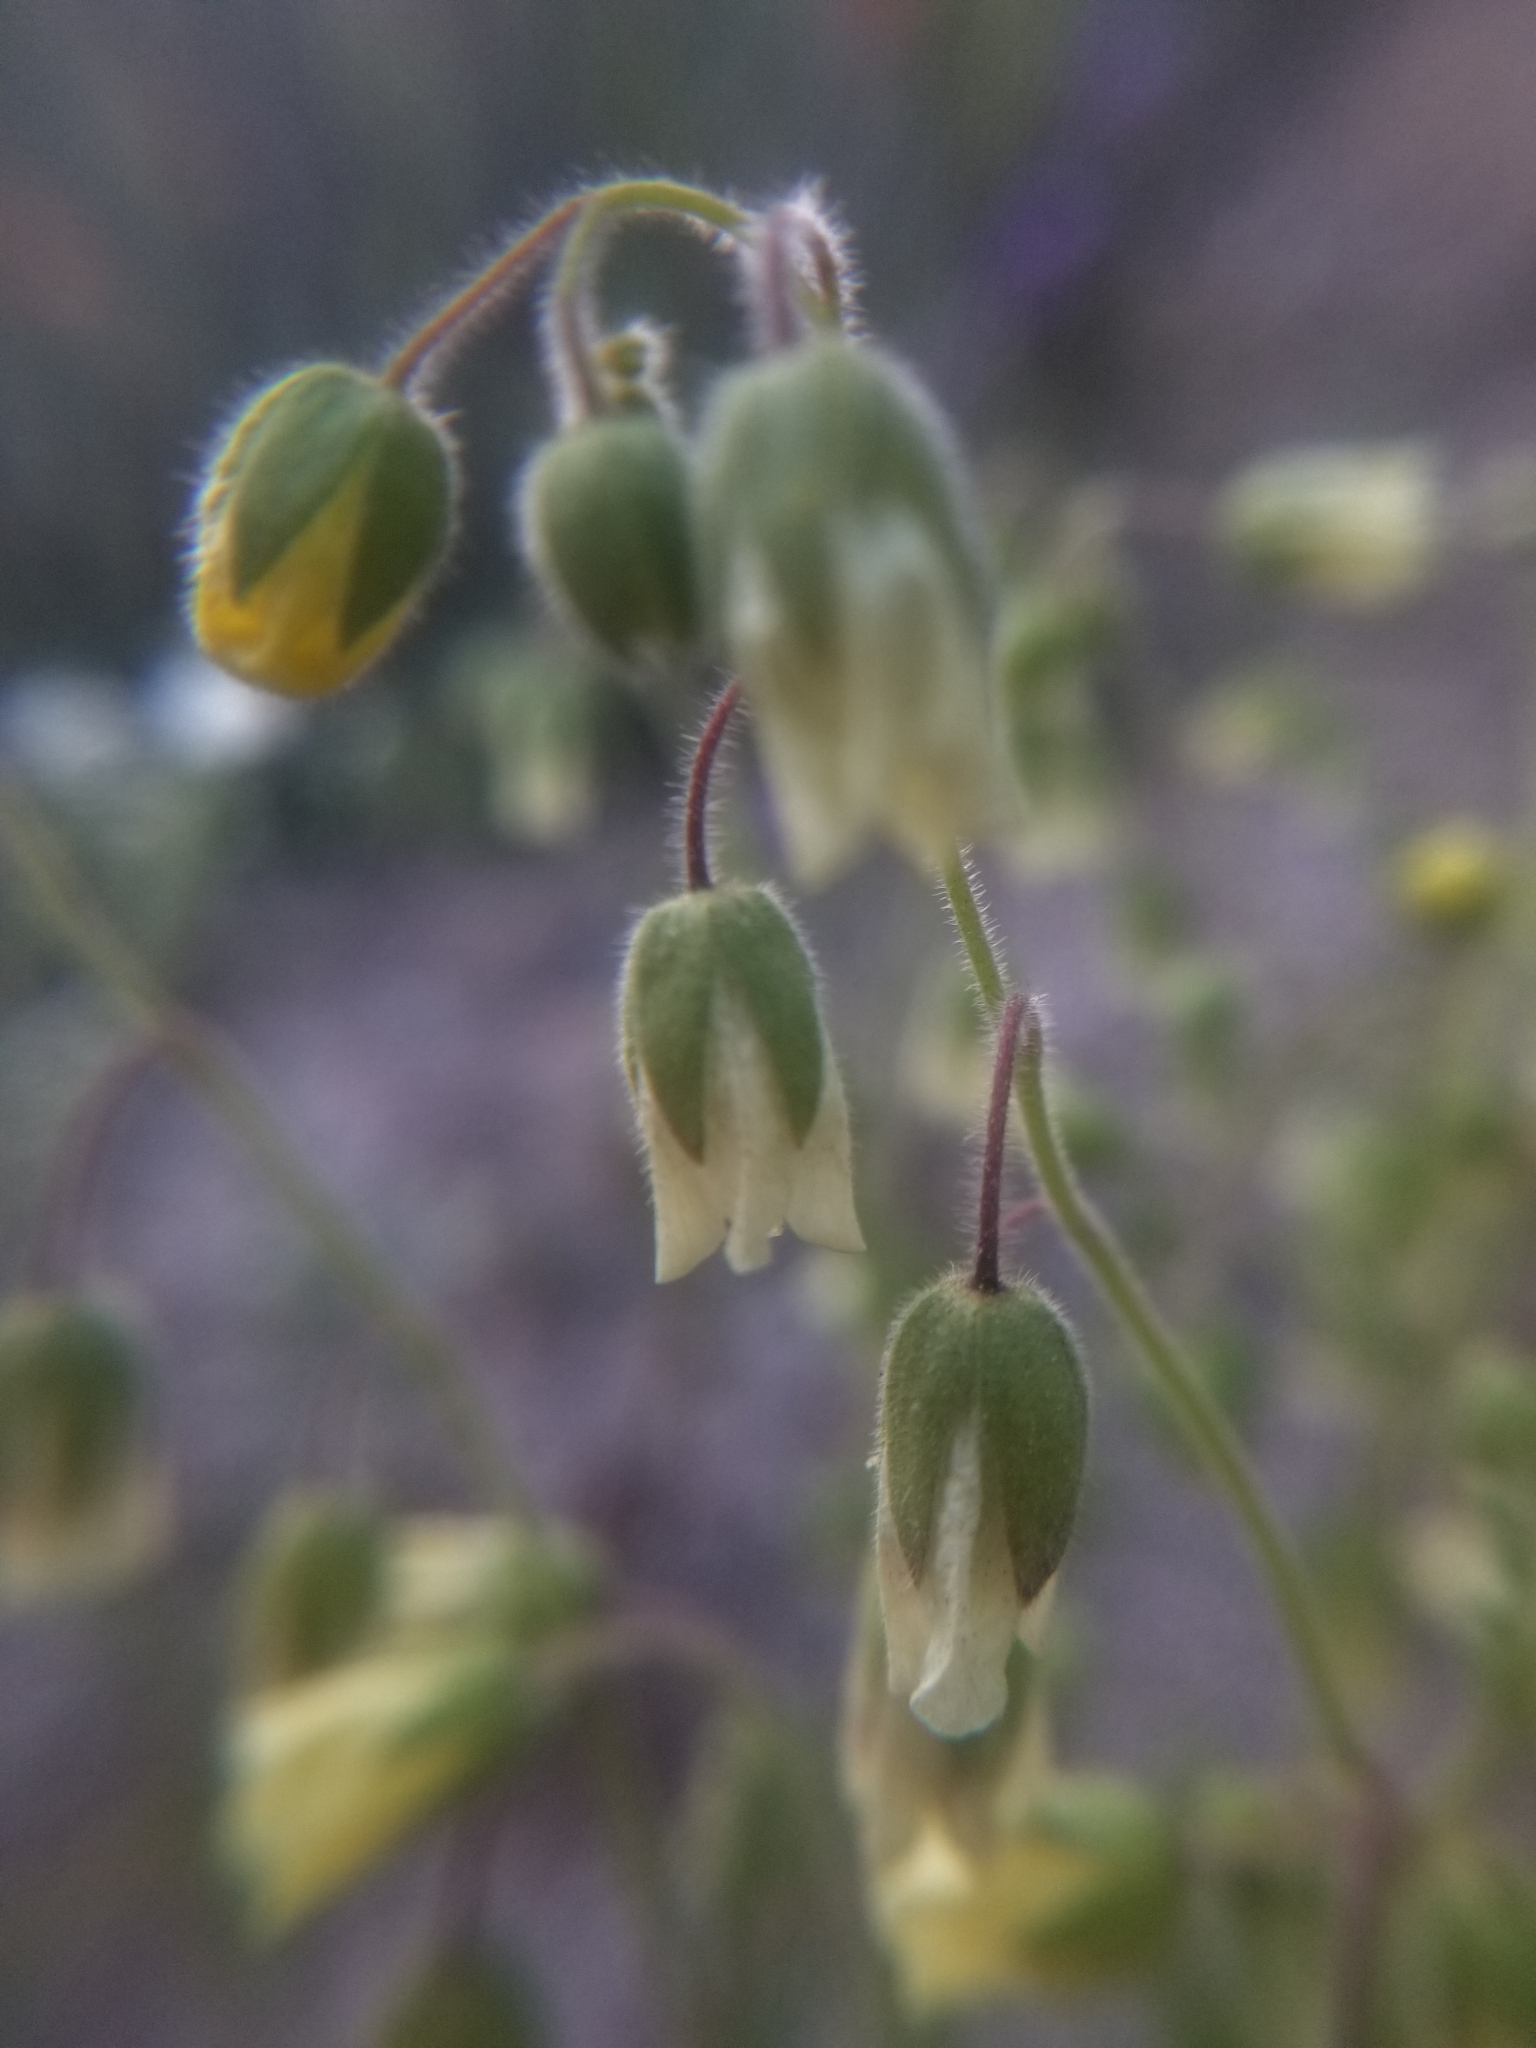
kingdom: Plantae
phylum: Tracheophyta
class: Magnoliopsida
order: Boraginales
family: Hydrophyllaceae
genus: Emmenanthe
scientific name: Emmenanthe penduliflora
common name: Whispering-bells
